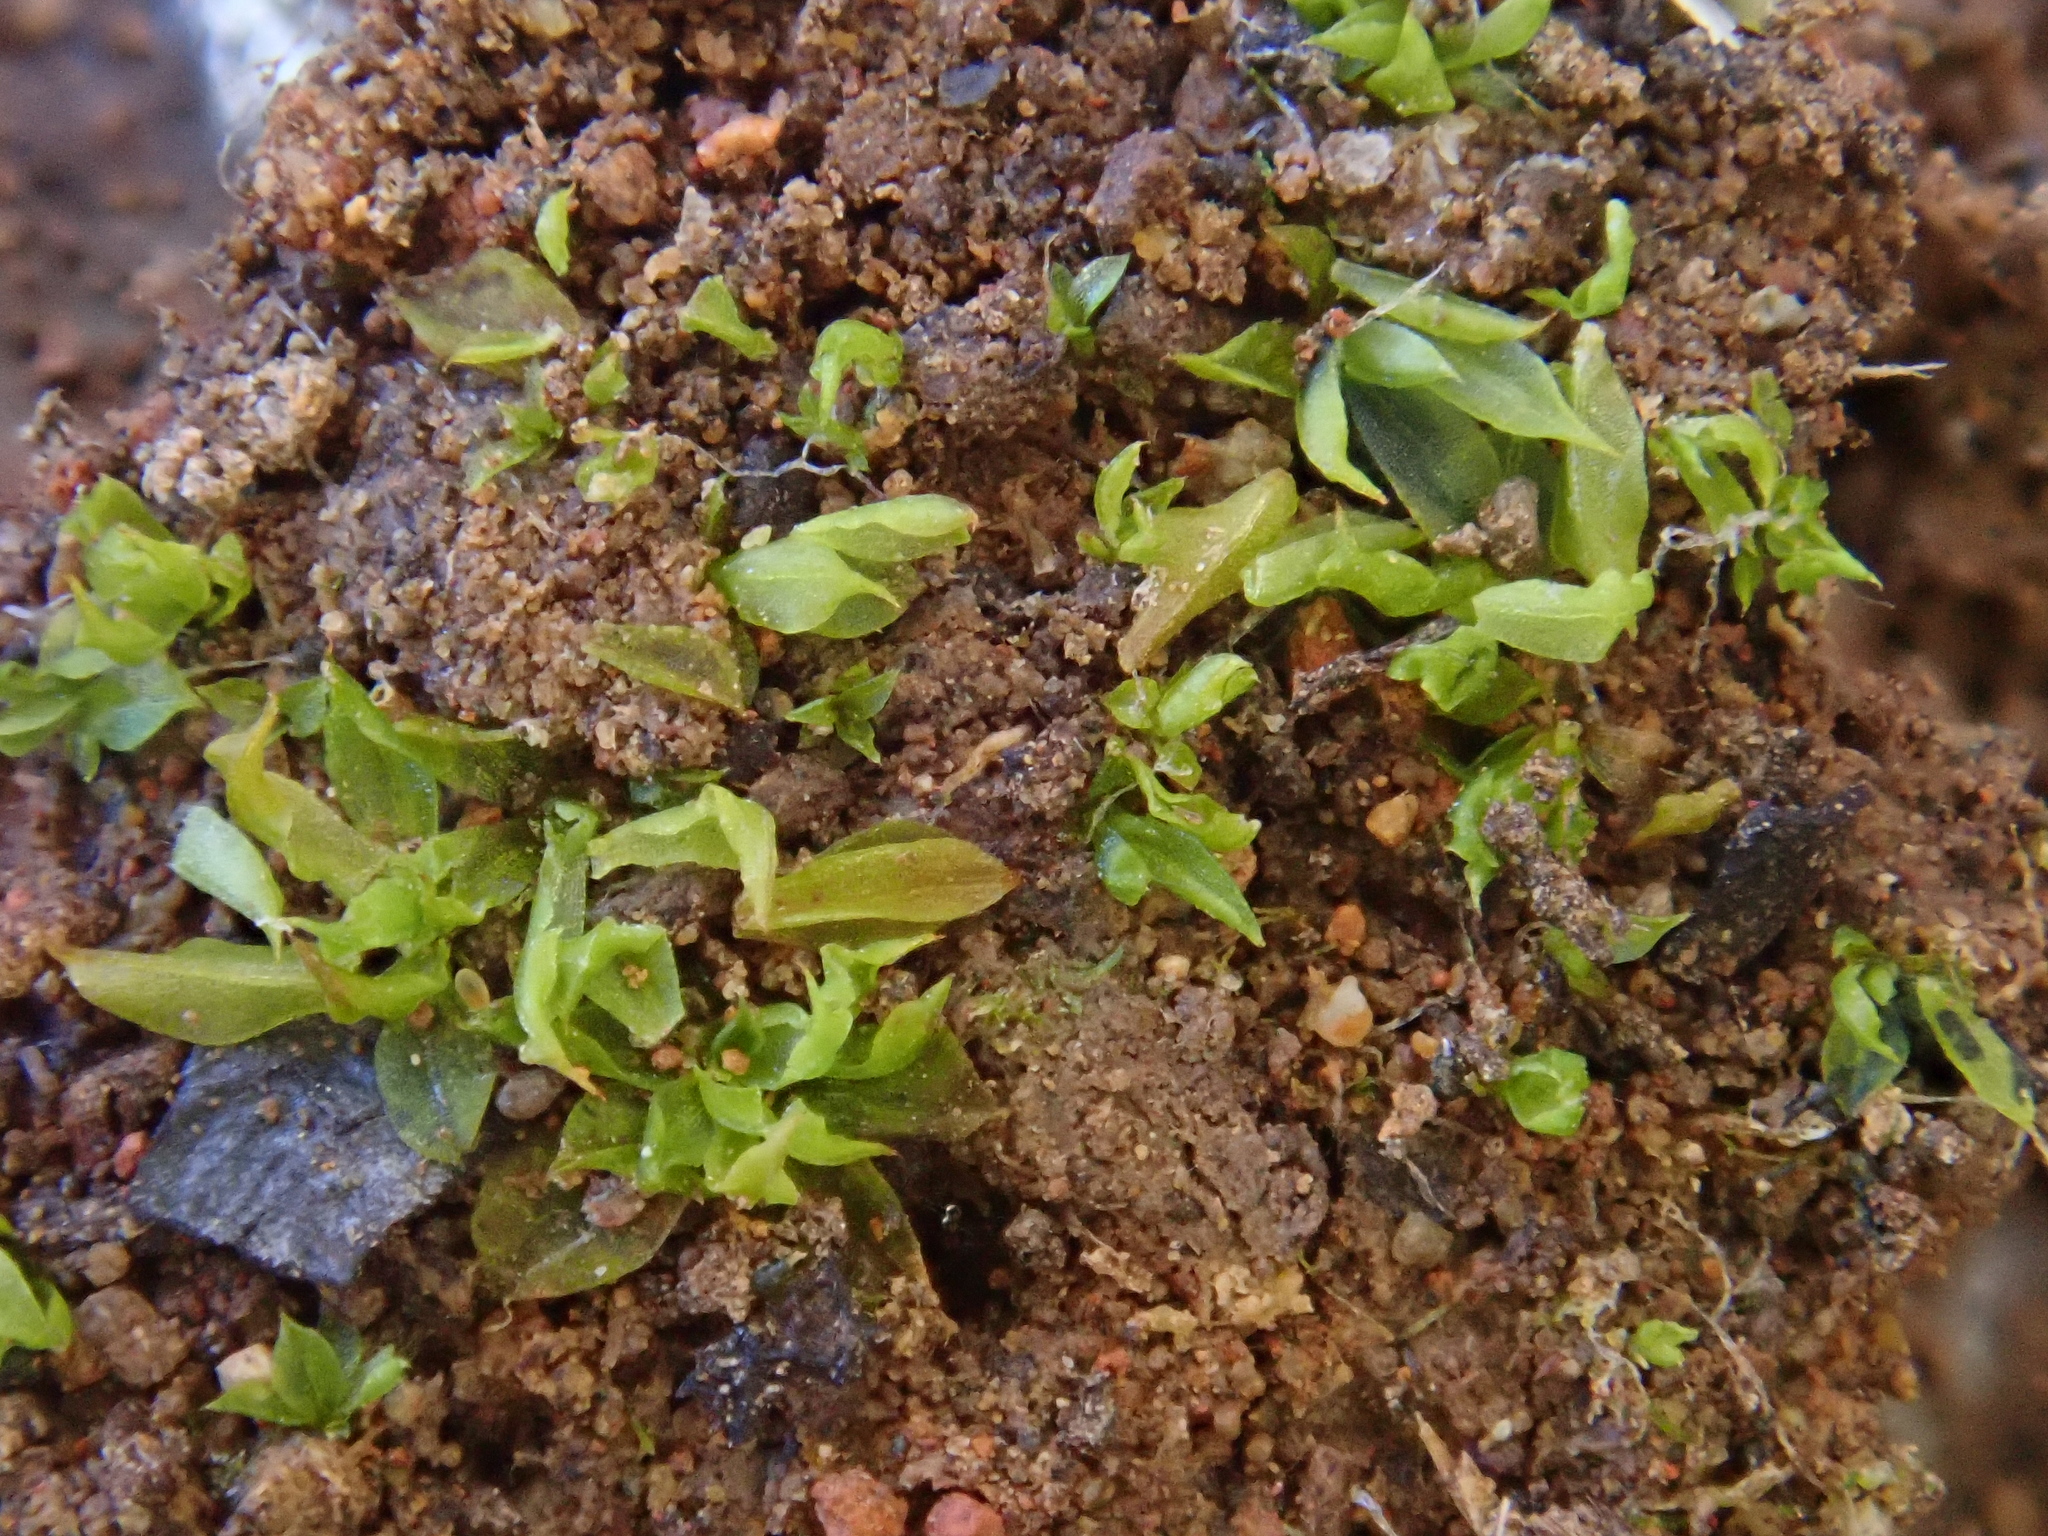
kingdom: Plantae
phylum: Bryophyta
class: Bryopsida
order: Pottiales
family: Pottiaceae
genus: Chenia
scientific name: Chenia leptophylla
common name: Vectis moss
